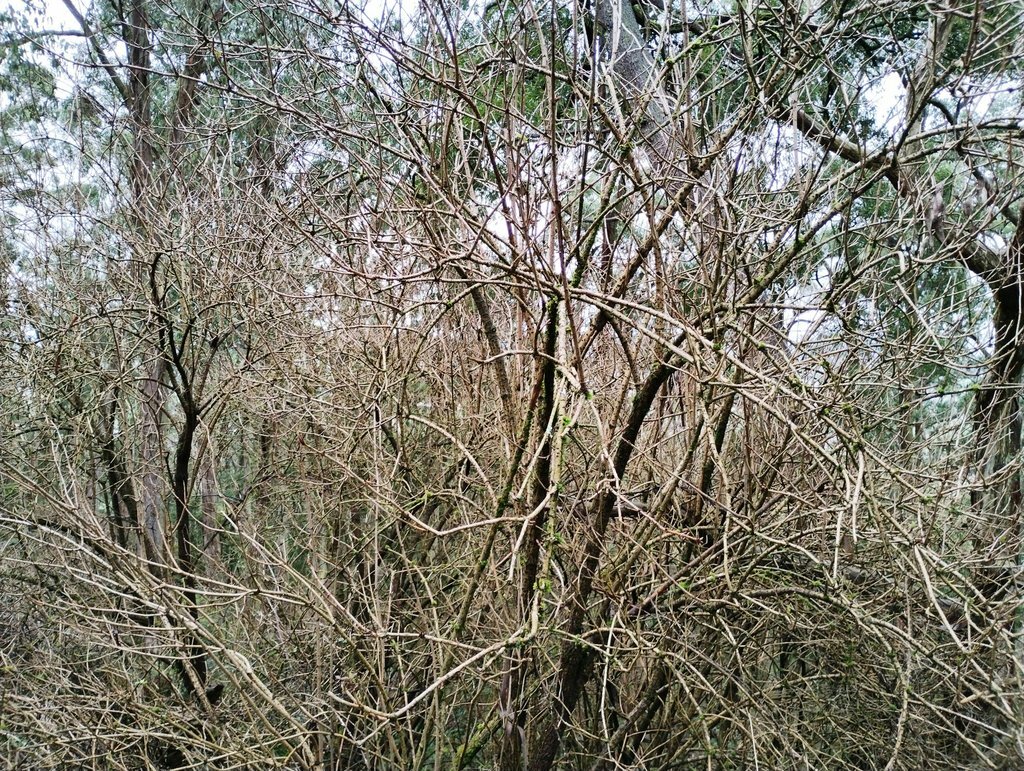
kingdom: Plantae
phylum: Tracheophyta
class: Magnoliopsida
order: Dipsacales
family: Viburnaceae
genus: Sambucus
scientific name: Sambucus nigra
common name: Elder
